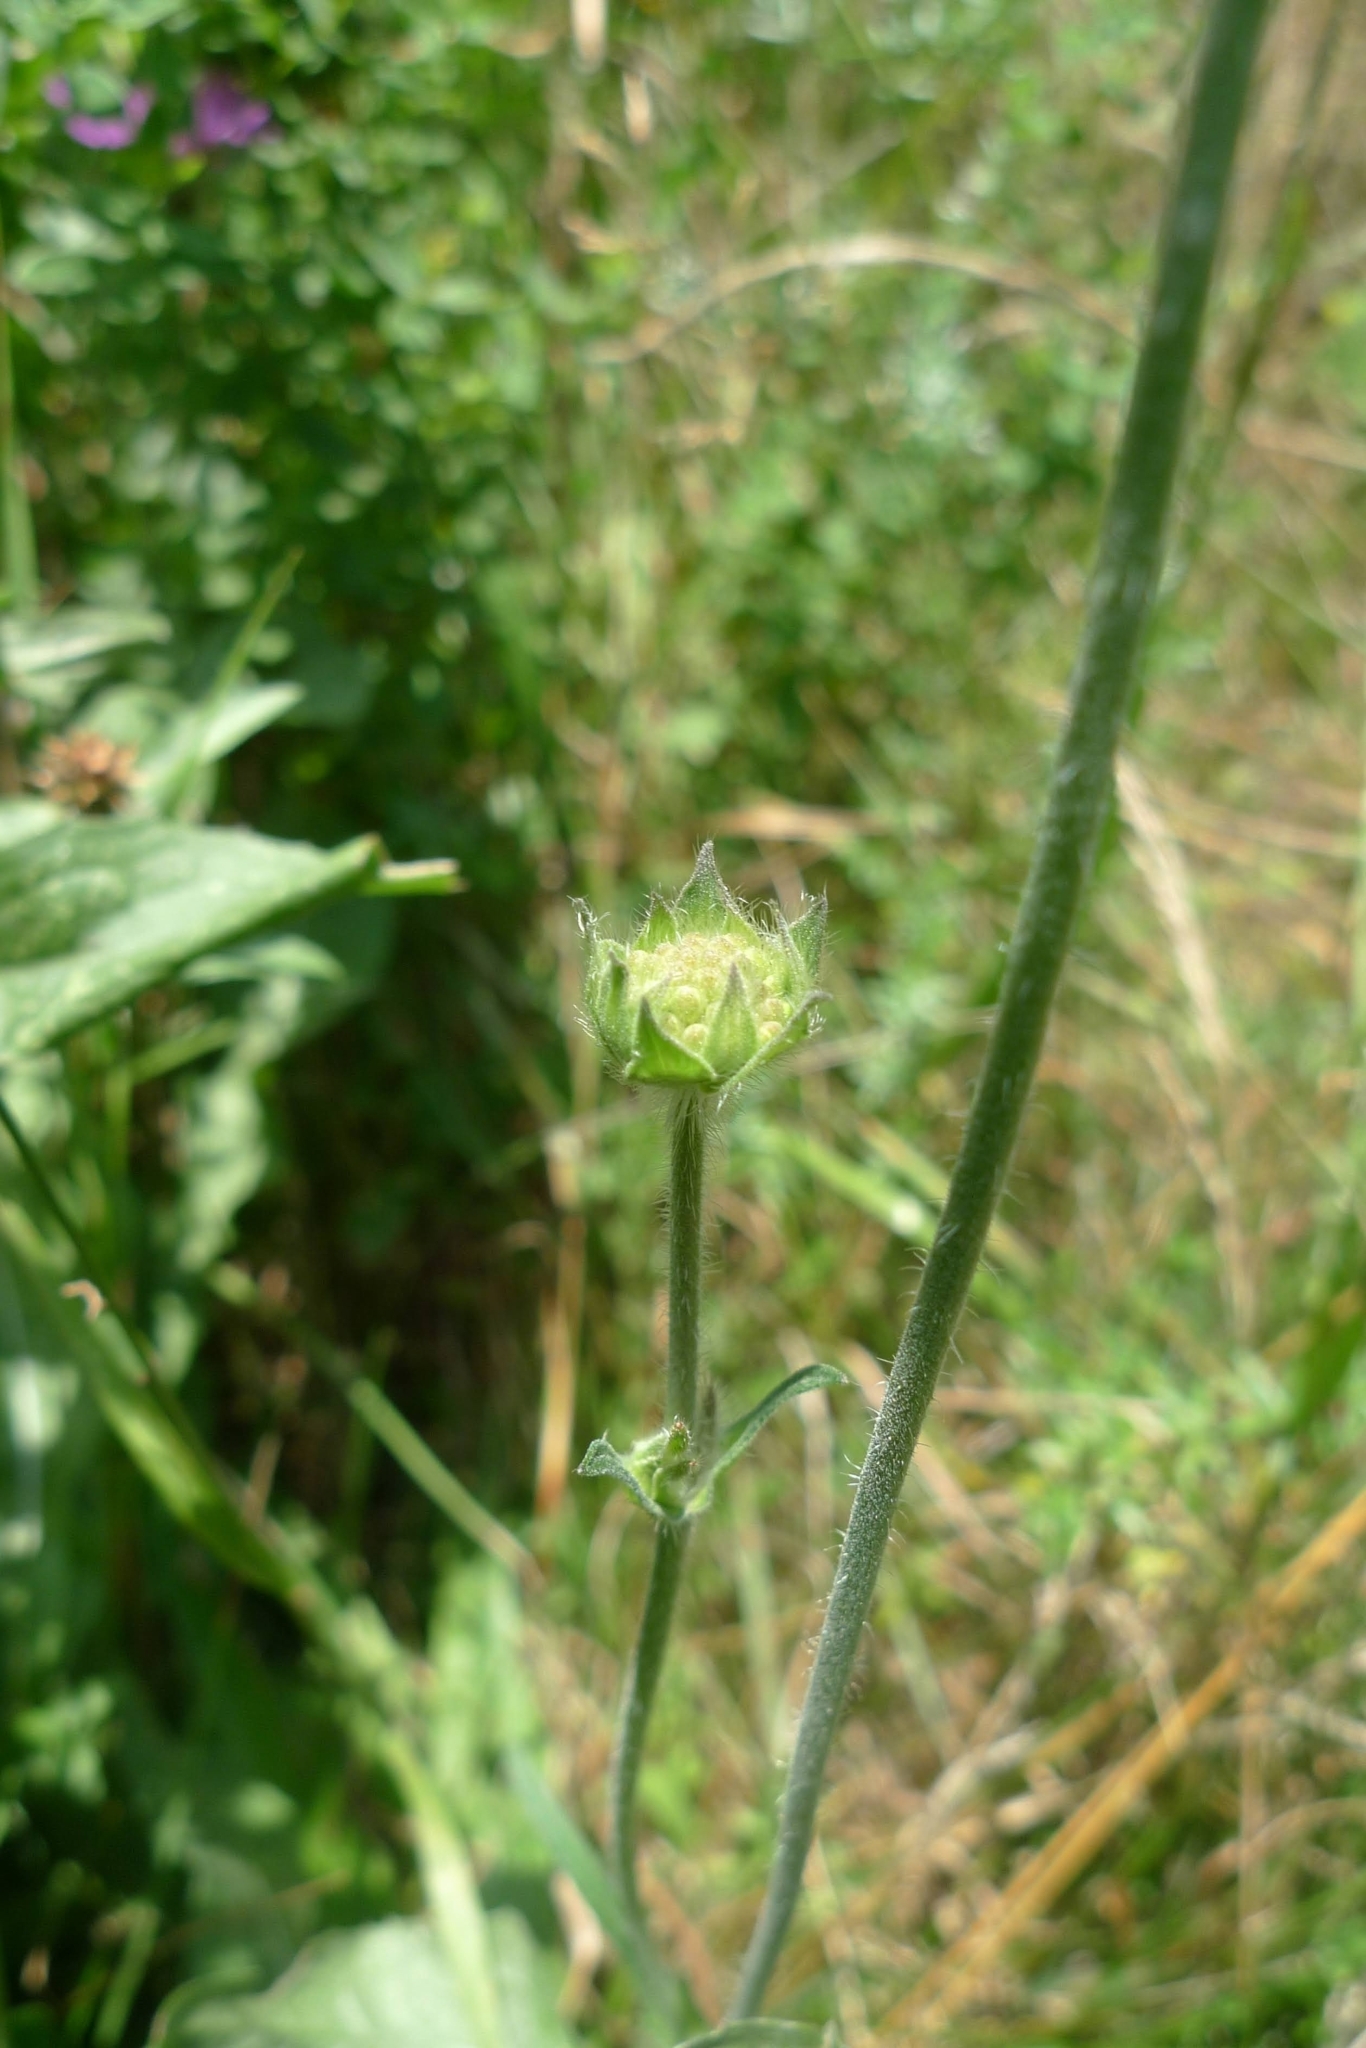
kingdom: Plantae
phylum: Tracheophyta
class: Magnoliopsida
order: Dipsacales
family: Caprifoliaceae
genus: Knautia
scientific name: Knautia arvensis
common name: Field scabiosa
